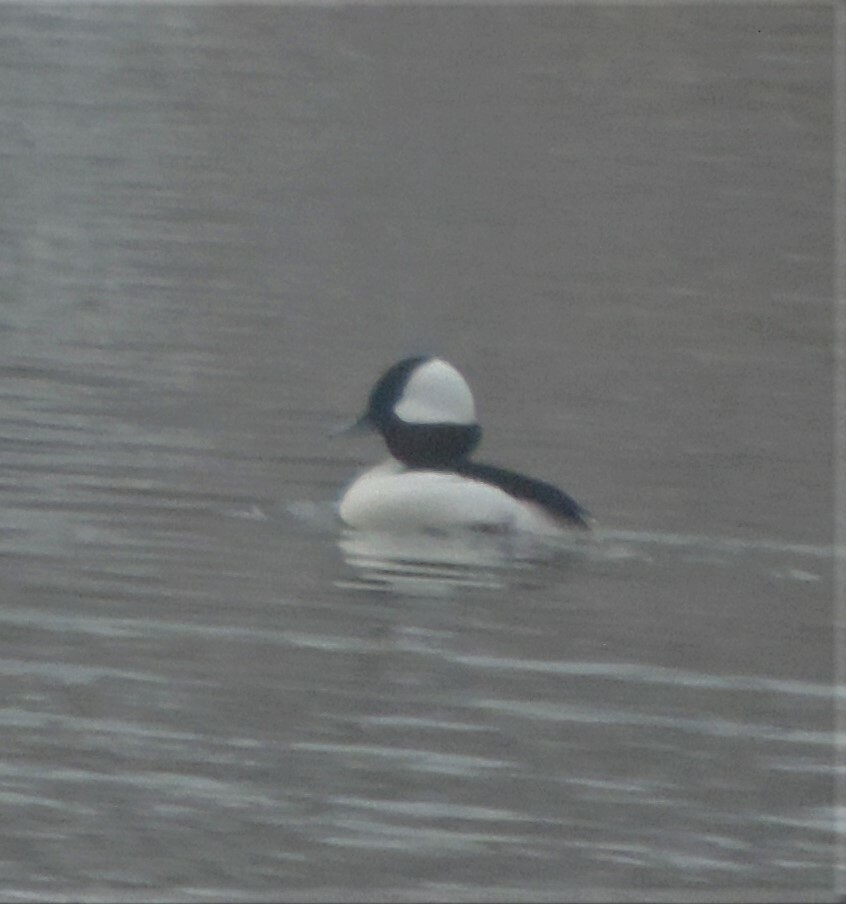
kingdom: Animalia
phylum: Chordata
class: Aves
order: Anseriformes
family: Anatidae
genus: Bucephala
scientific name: Bucephala albeola
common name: Bufflehead
